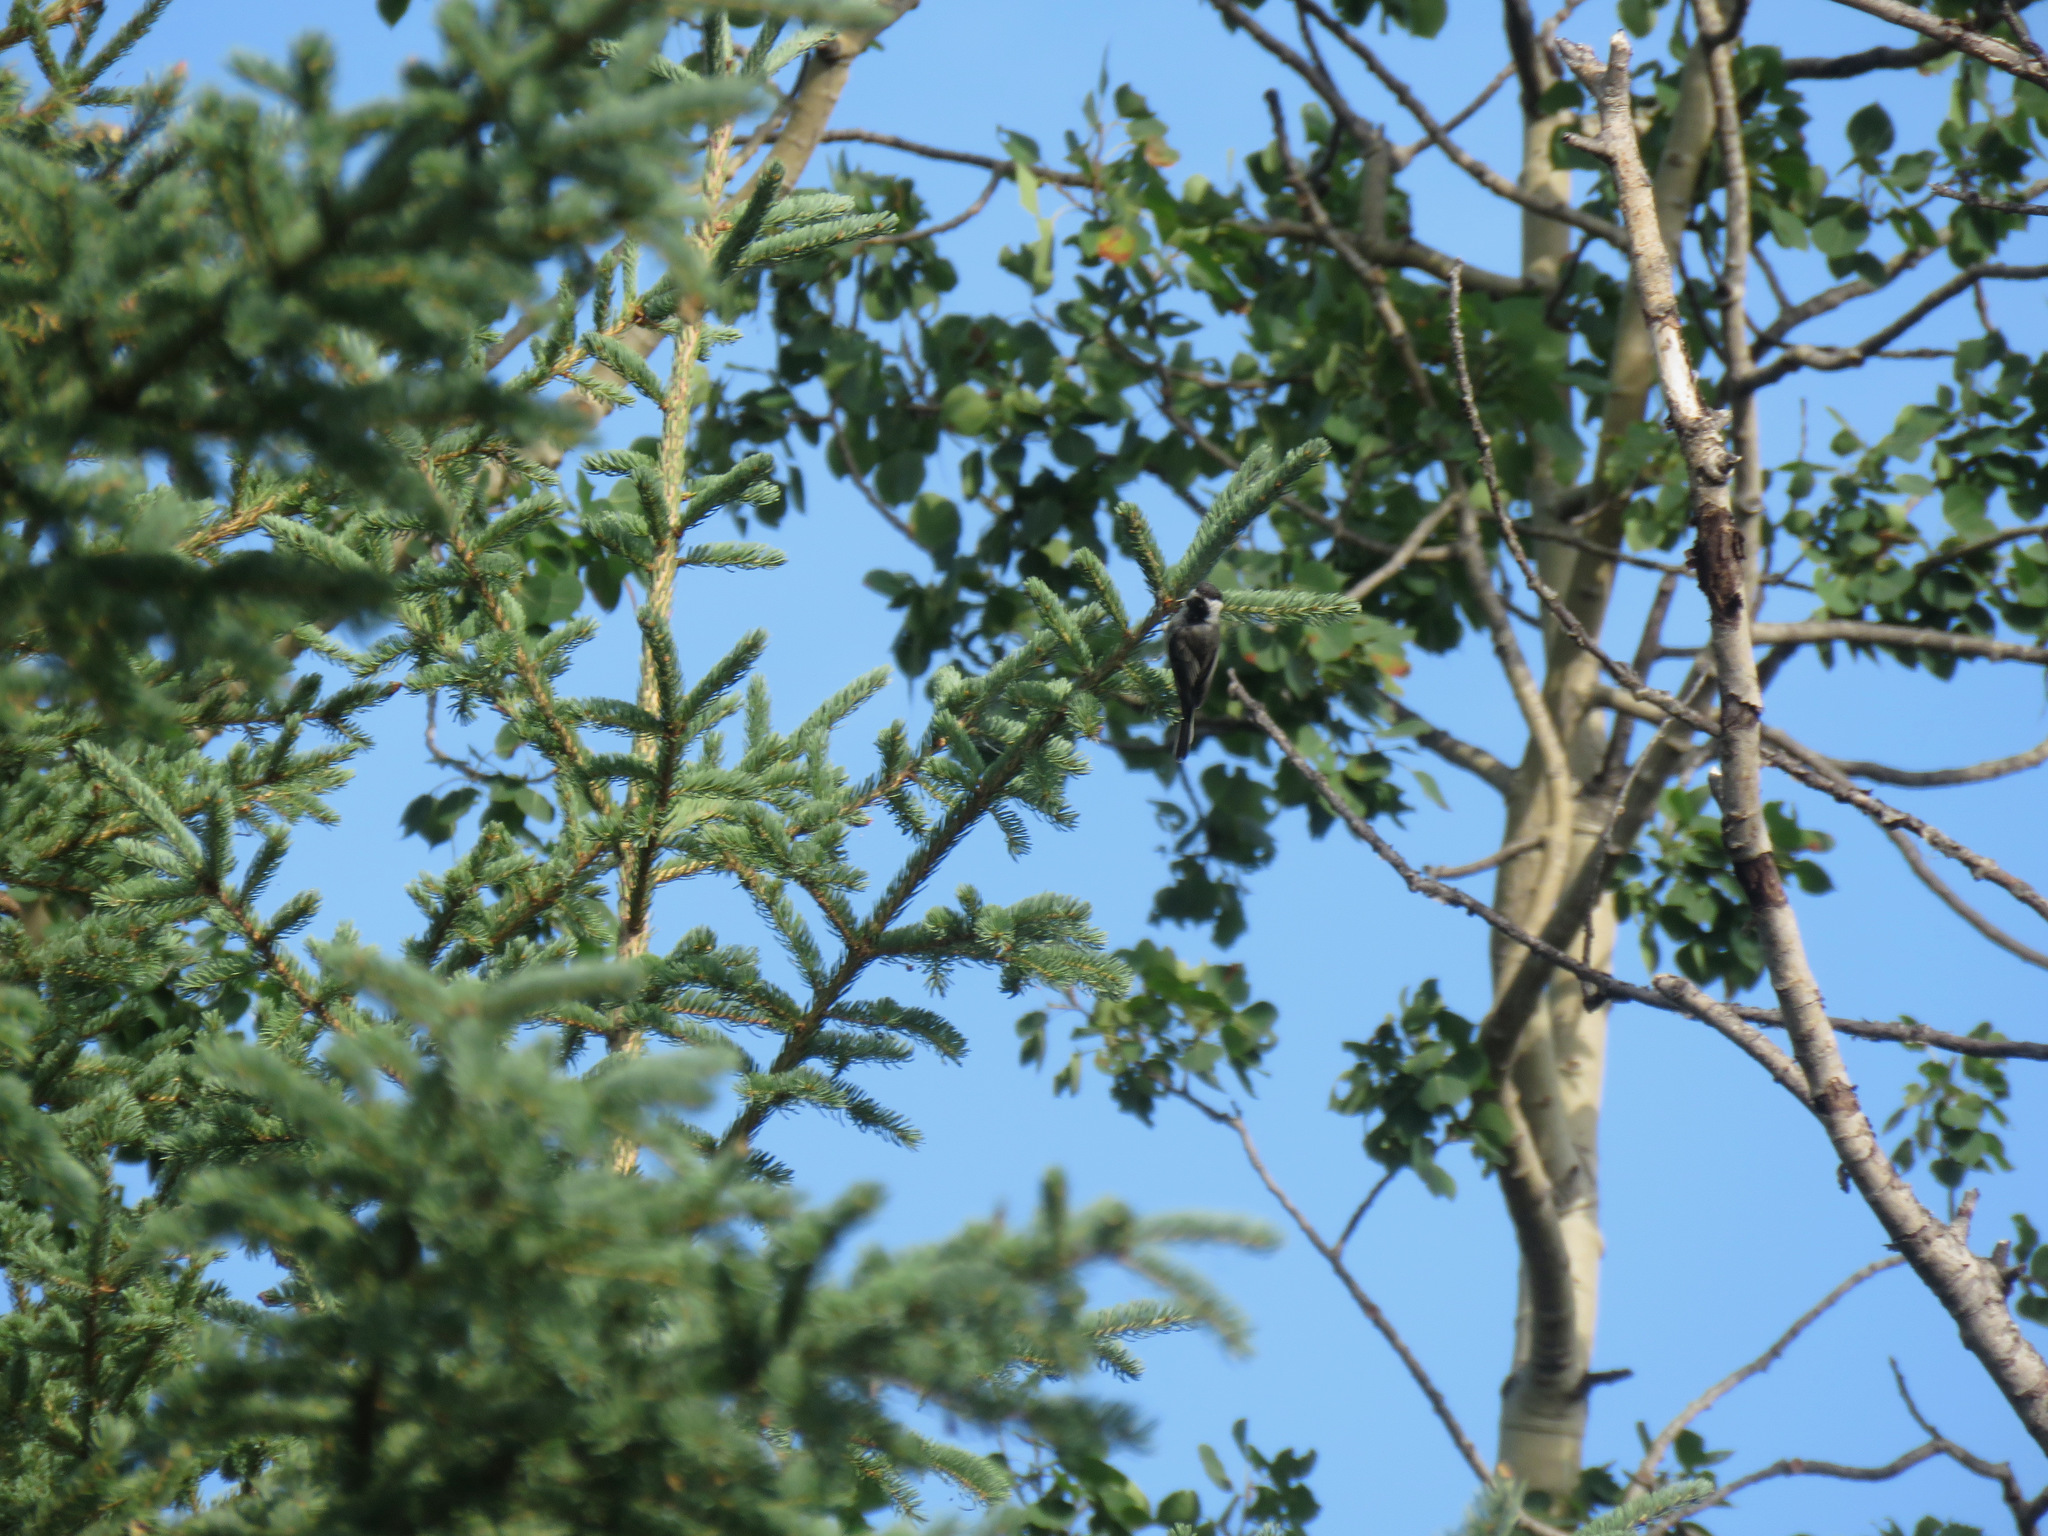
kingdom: Animalia
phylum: Chordata
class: Aves
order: Passeriformes
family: Paridae
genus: Poecile
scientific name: Poecile atricapillus
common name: Black-capped chickadee
